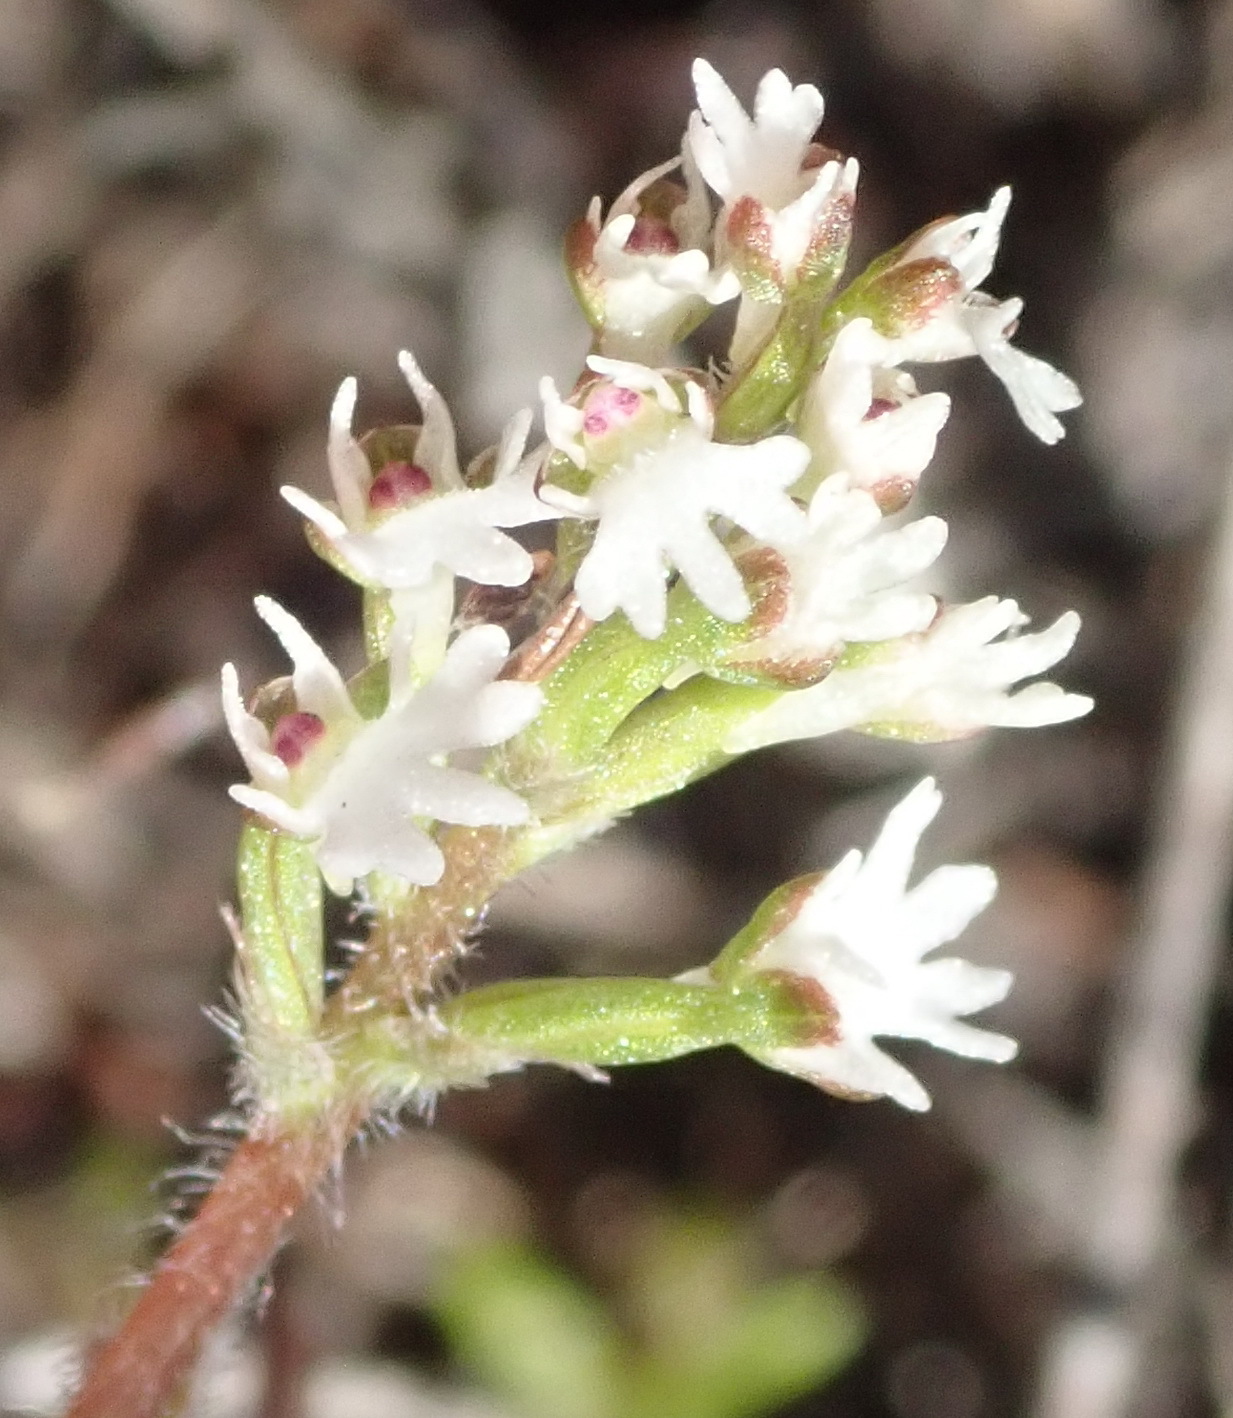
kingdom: Plantae
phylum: Tracheophyta
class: Liliopsida
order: Asparagales
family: Orchidaceae
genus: Holothrix
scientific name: Holothrix mundii
